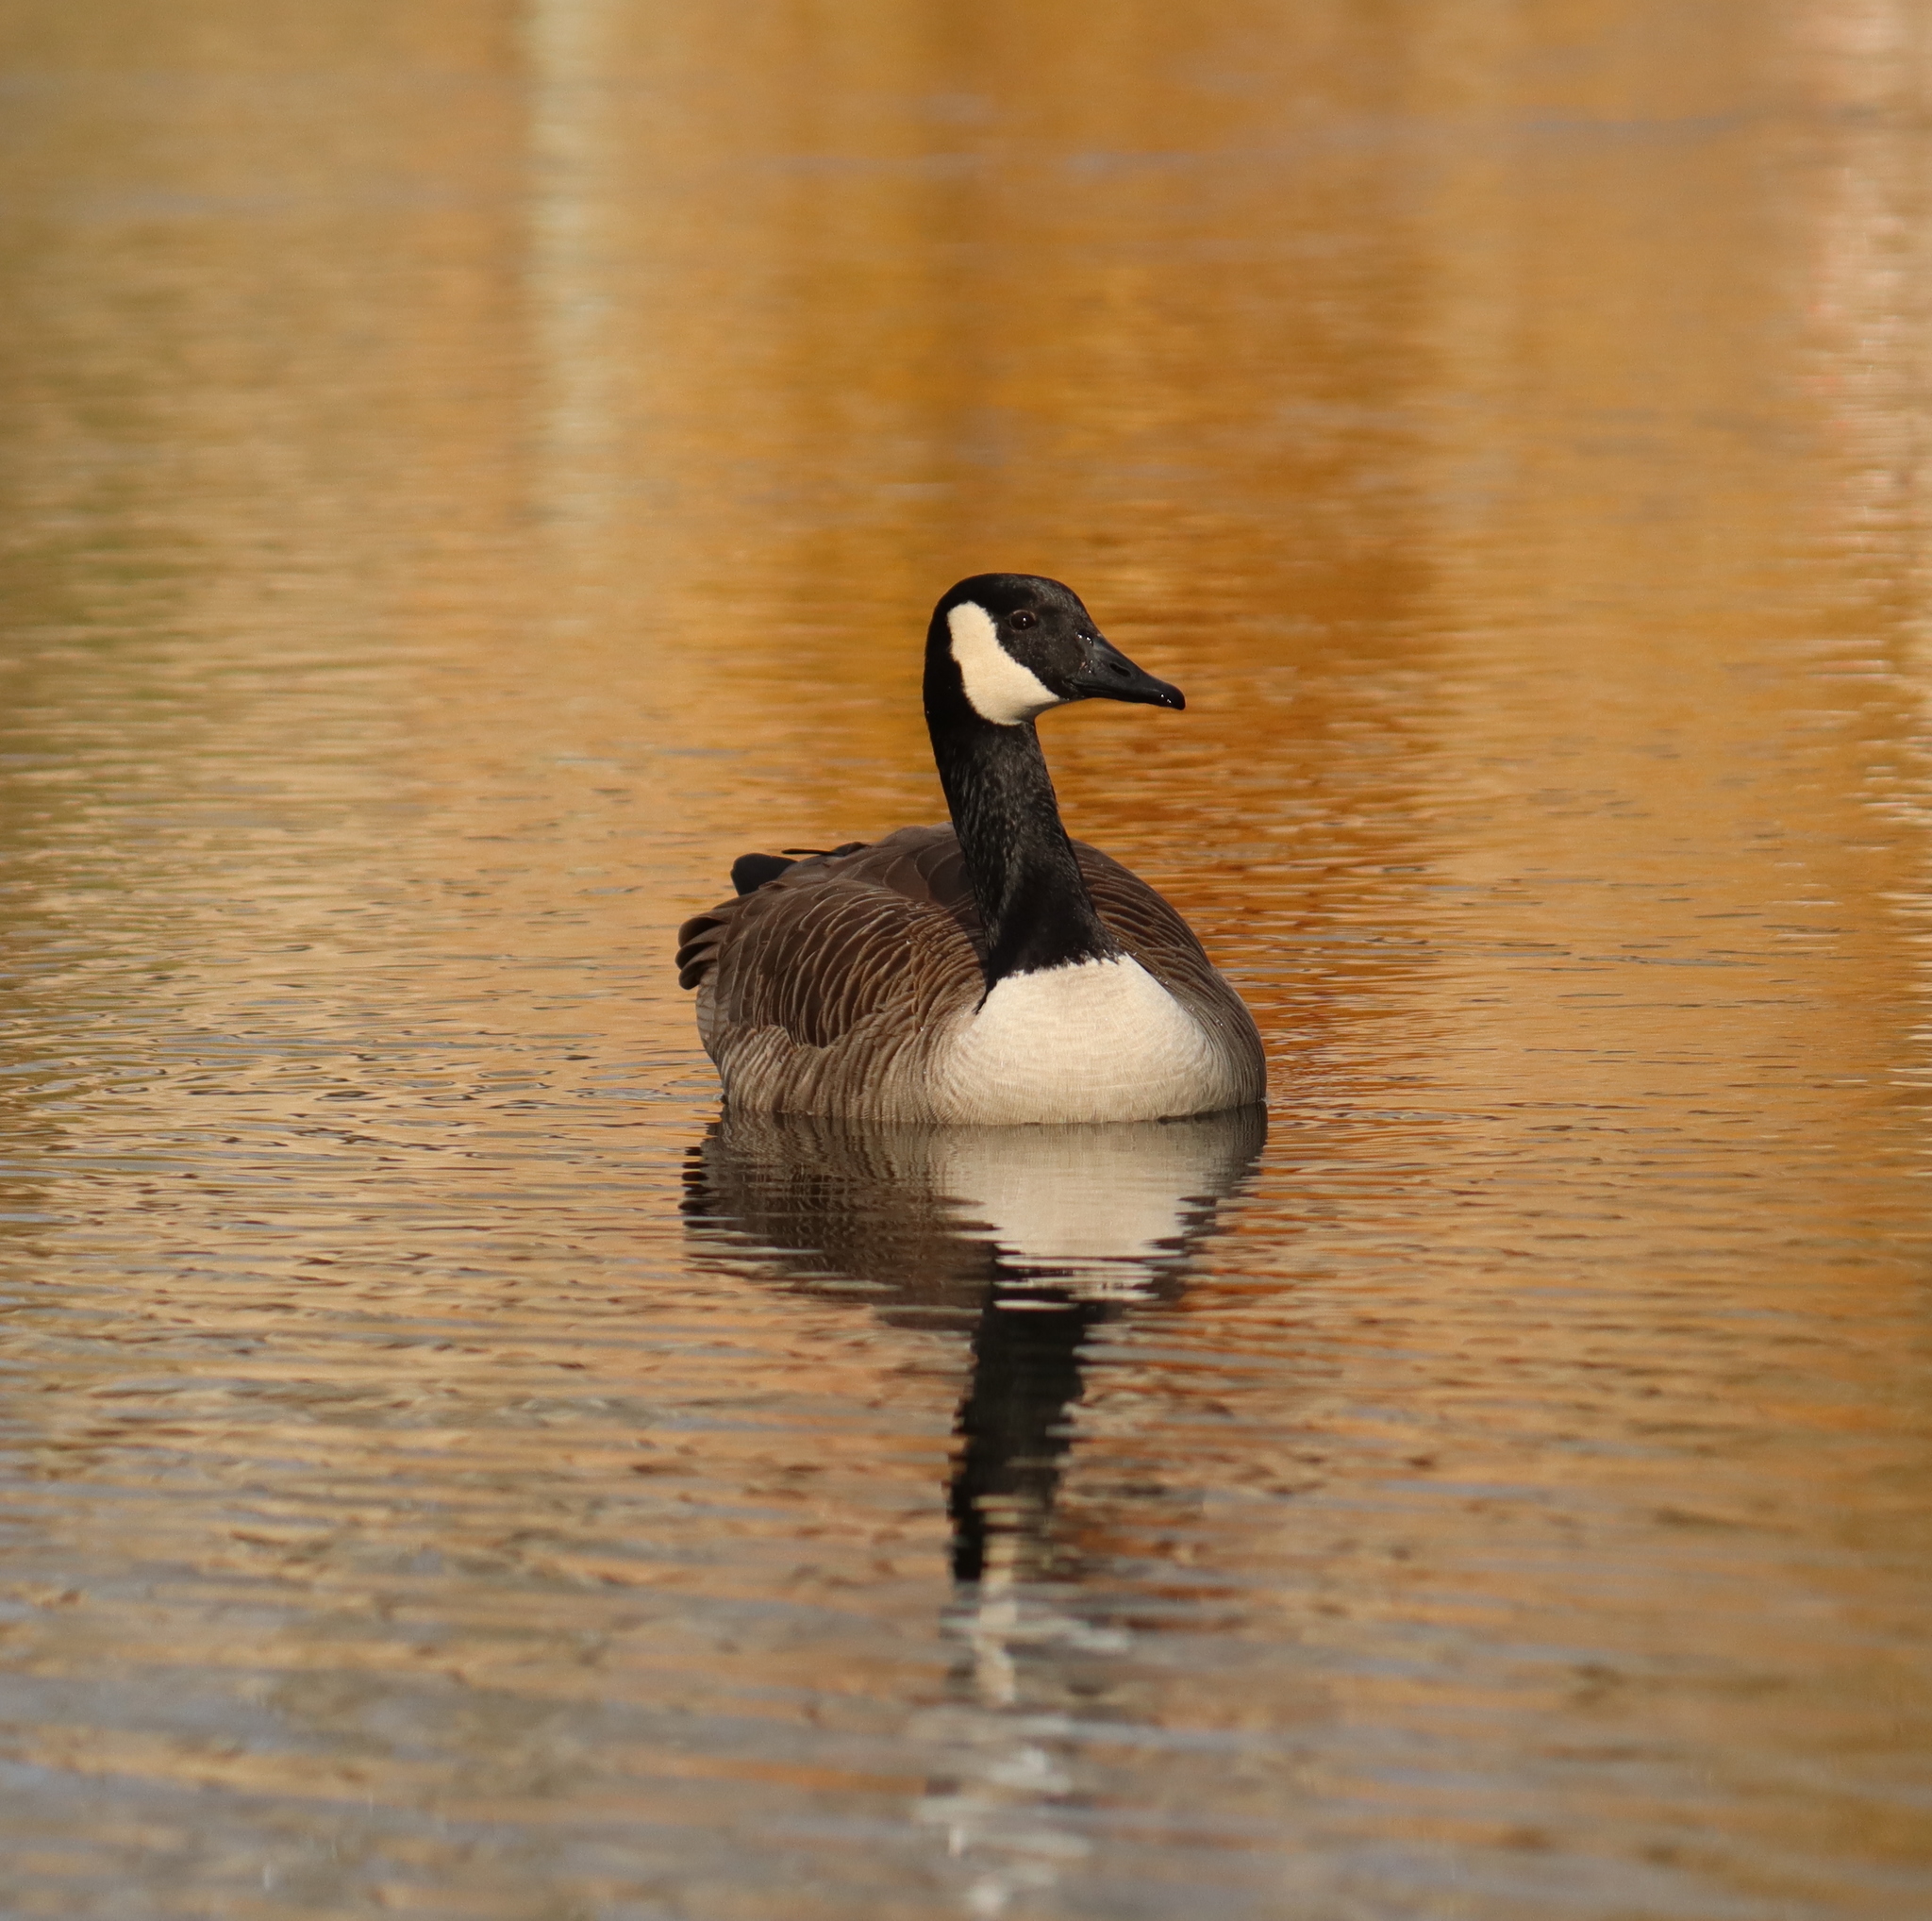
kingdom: Animalia
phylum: Chordata
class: Aves
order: Anseriformes
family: Anatidae
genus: Branta
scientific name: Branta canadensis
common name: Canada goose
